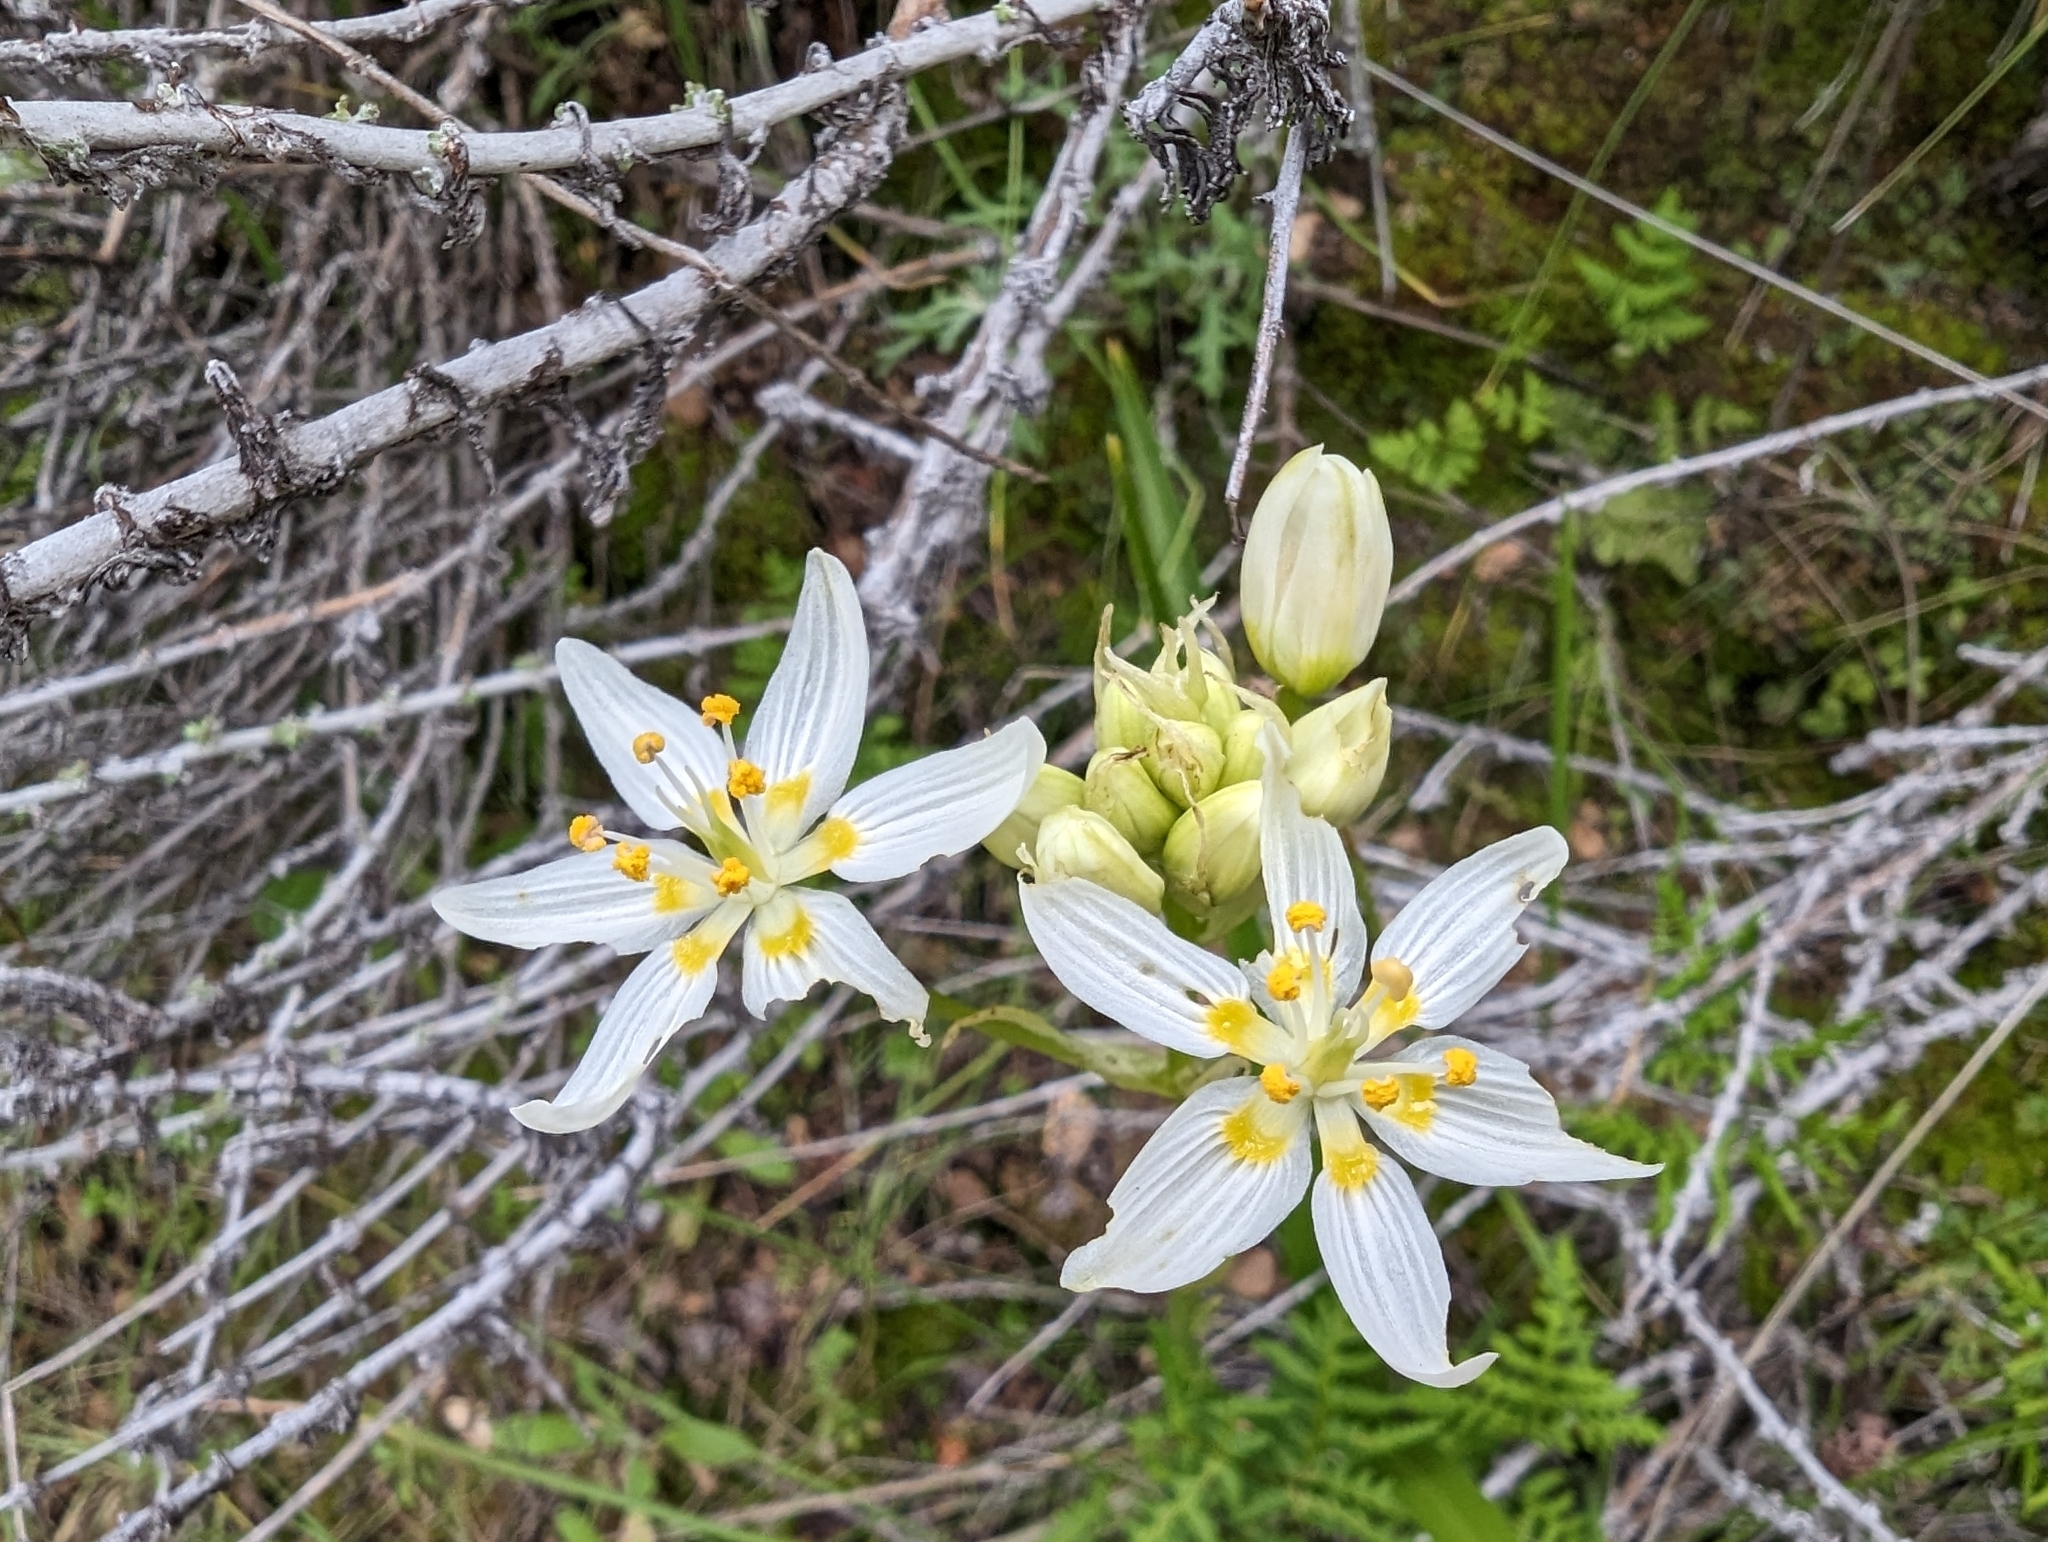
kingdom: Plantae
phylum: Tracheophyta
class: Liliopsida
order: Liliales
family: Melanthiaceae
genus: Toxicoscordion
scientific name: Toxicoscordion fremontii
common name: Fremont's death camas
